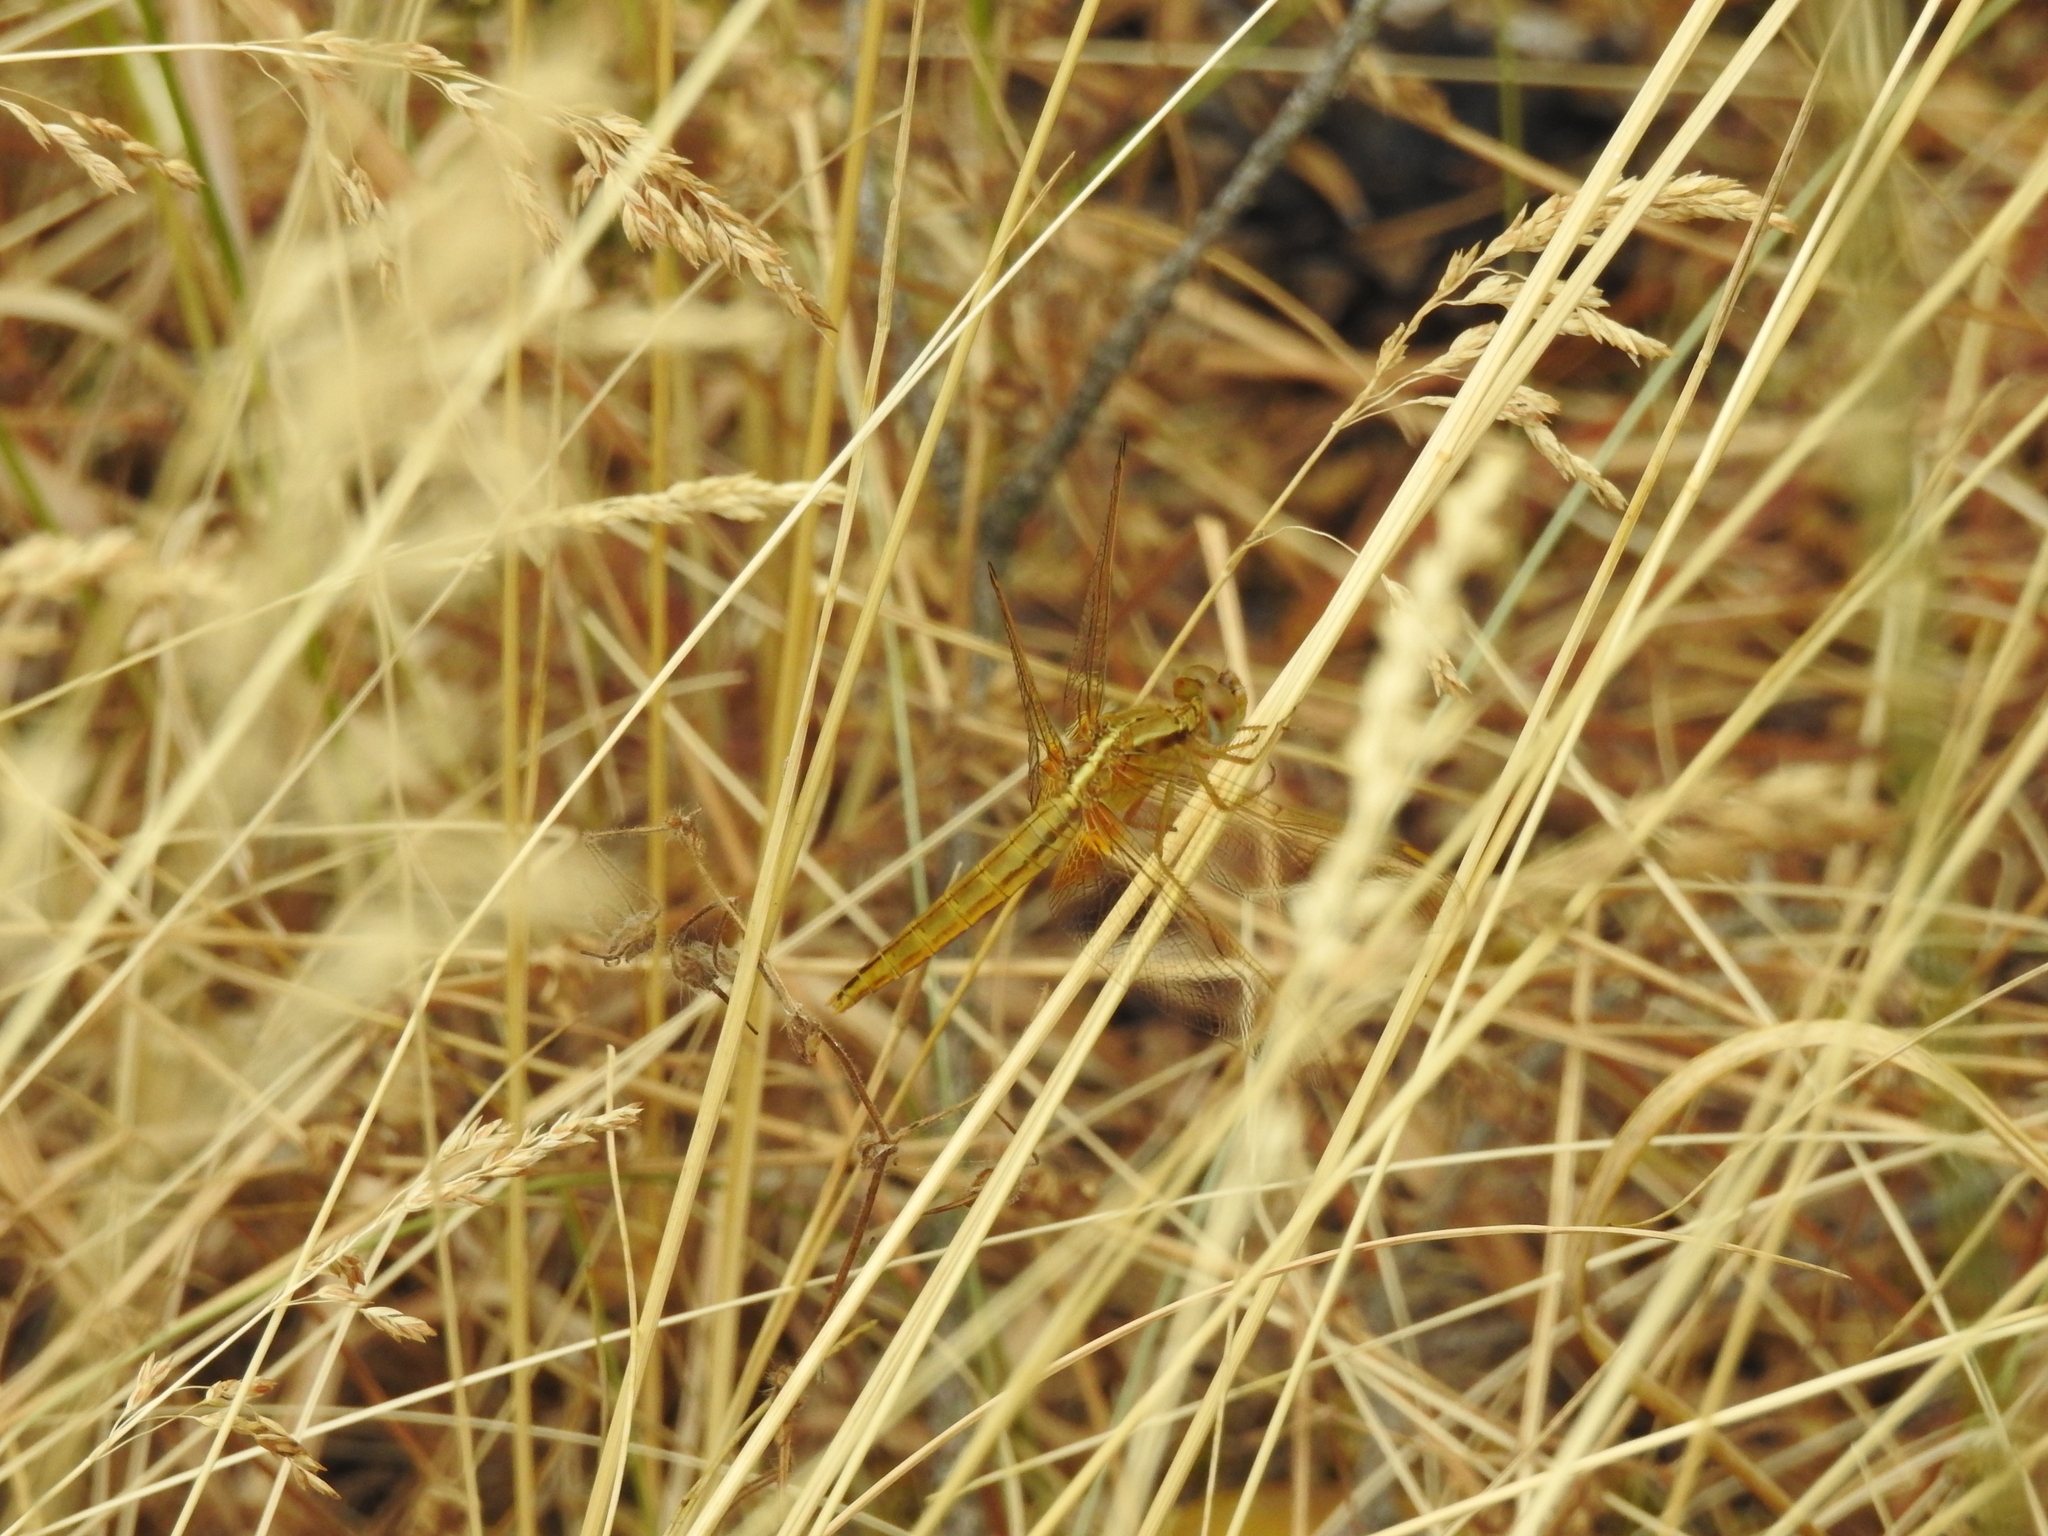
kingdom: Animalia
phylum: Arthropoda
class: Insecta
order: Odonata
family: Libellulidae
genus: Crocothemis
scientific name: Crocothemis erythraea
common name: Scarlet dragonfly
